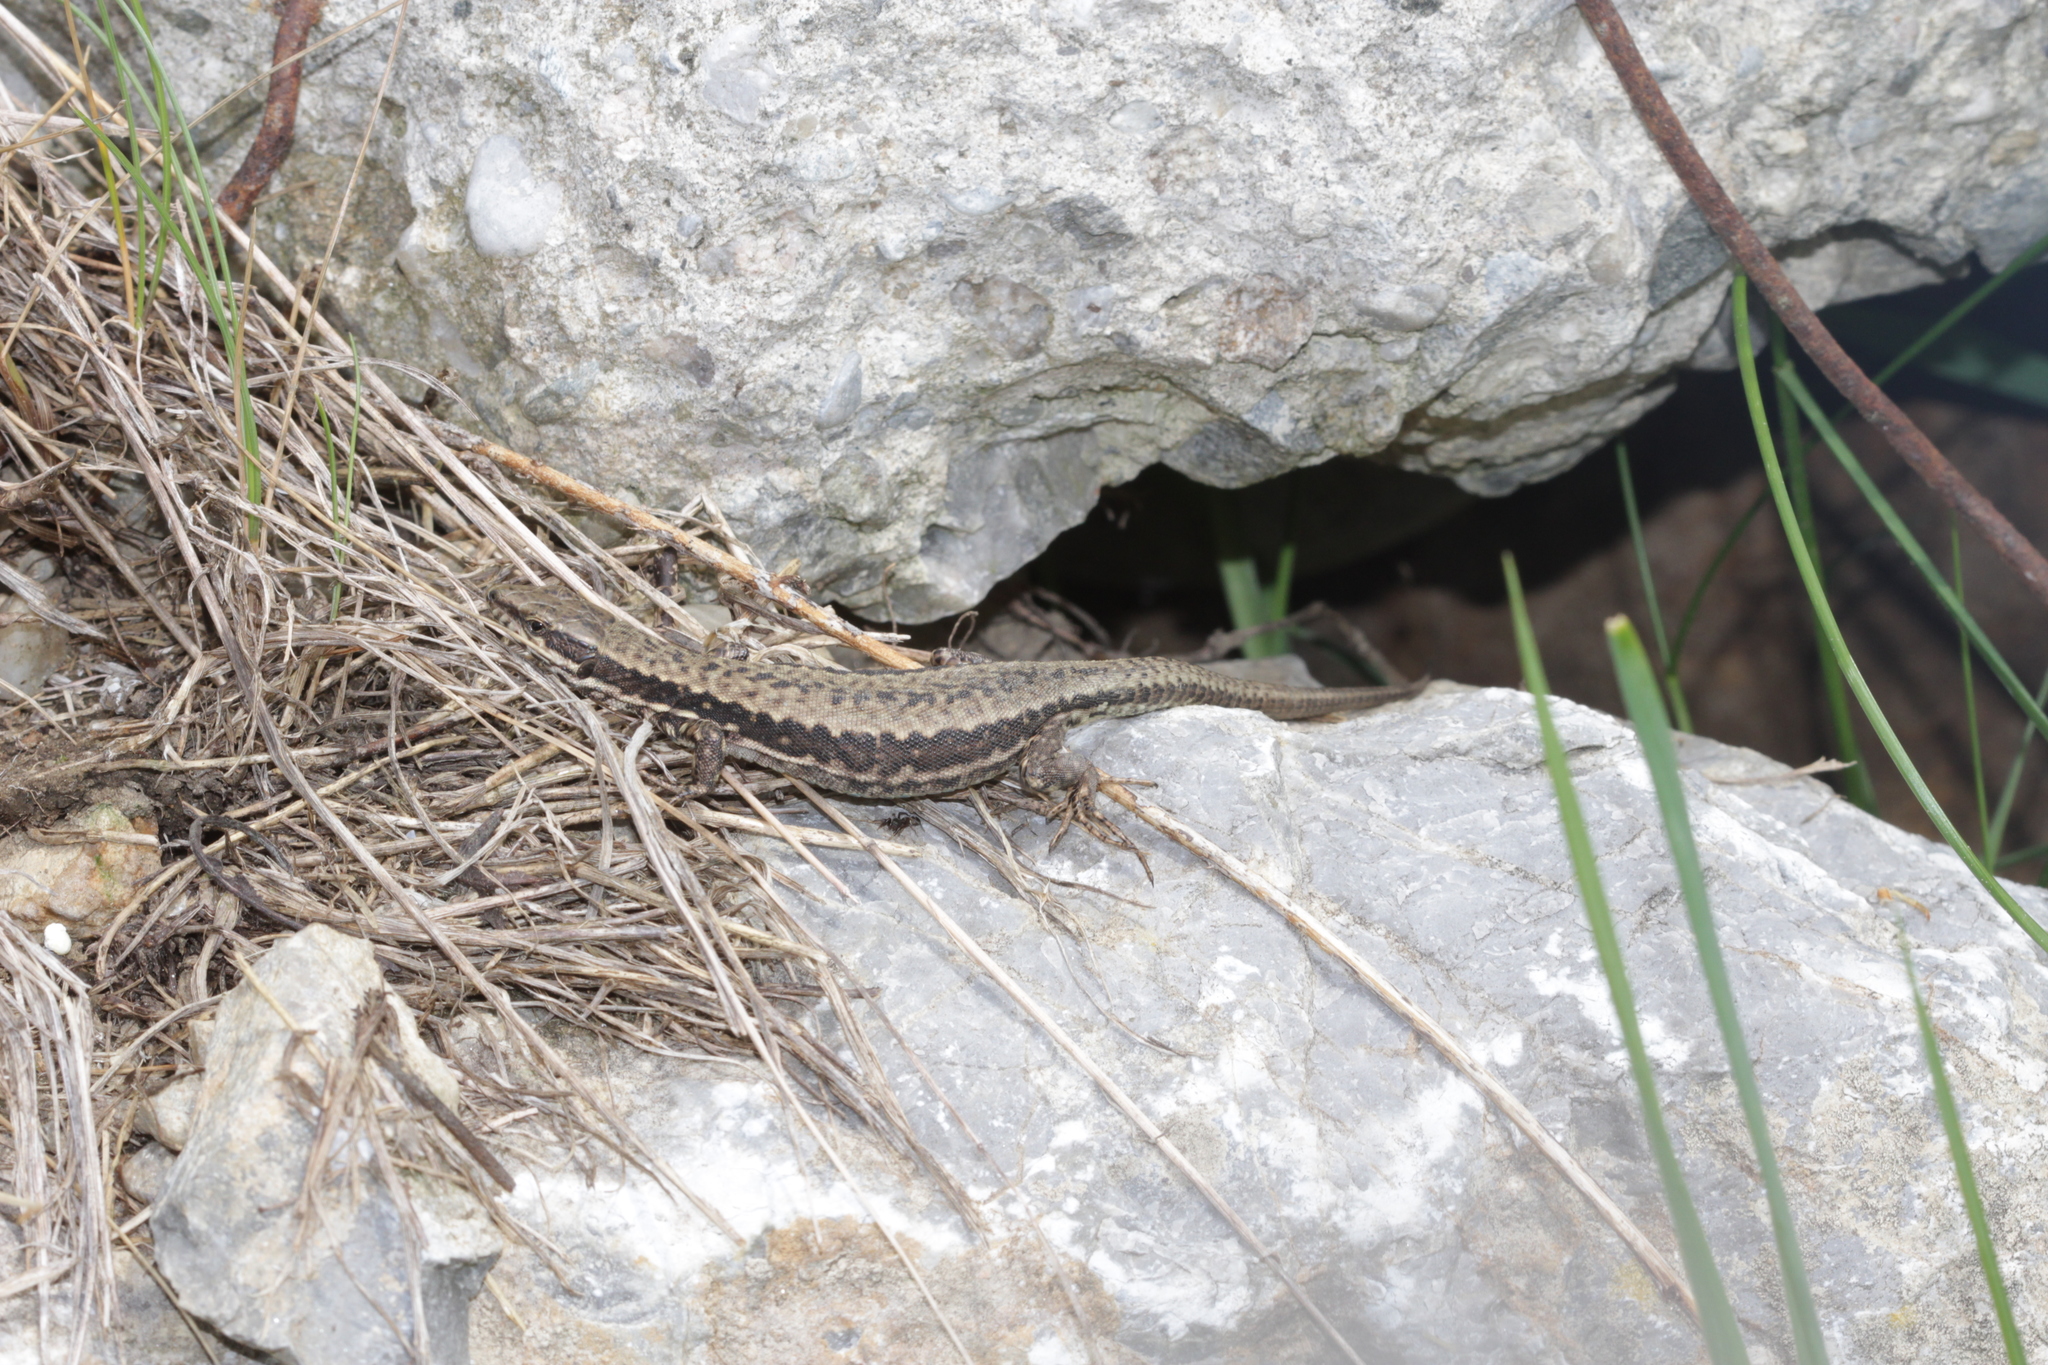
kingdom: Animalia
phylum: Chordata
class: Squamata
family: Lacertidae
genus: Podarcis
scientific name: Podarcis muralis
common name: Common wall lizard
